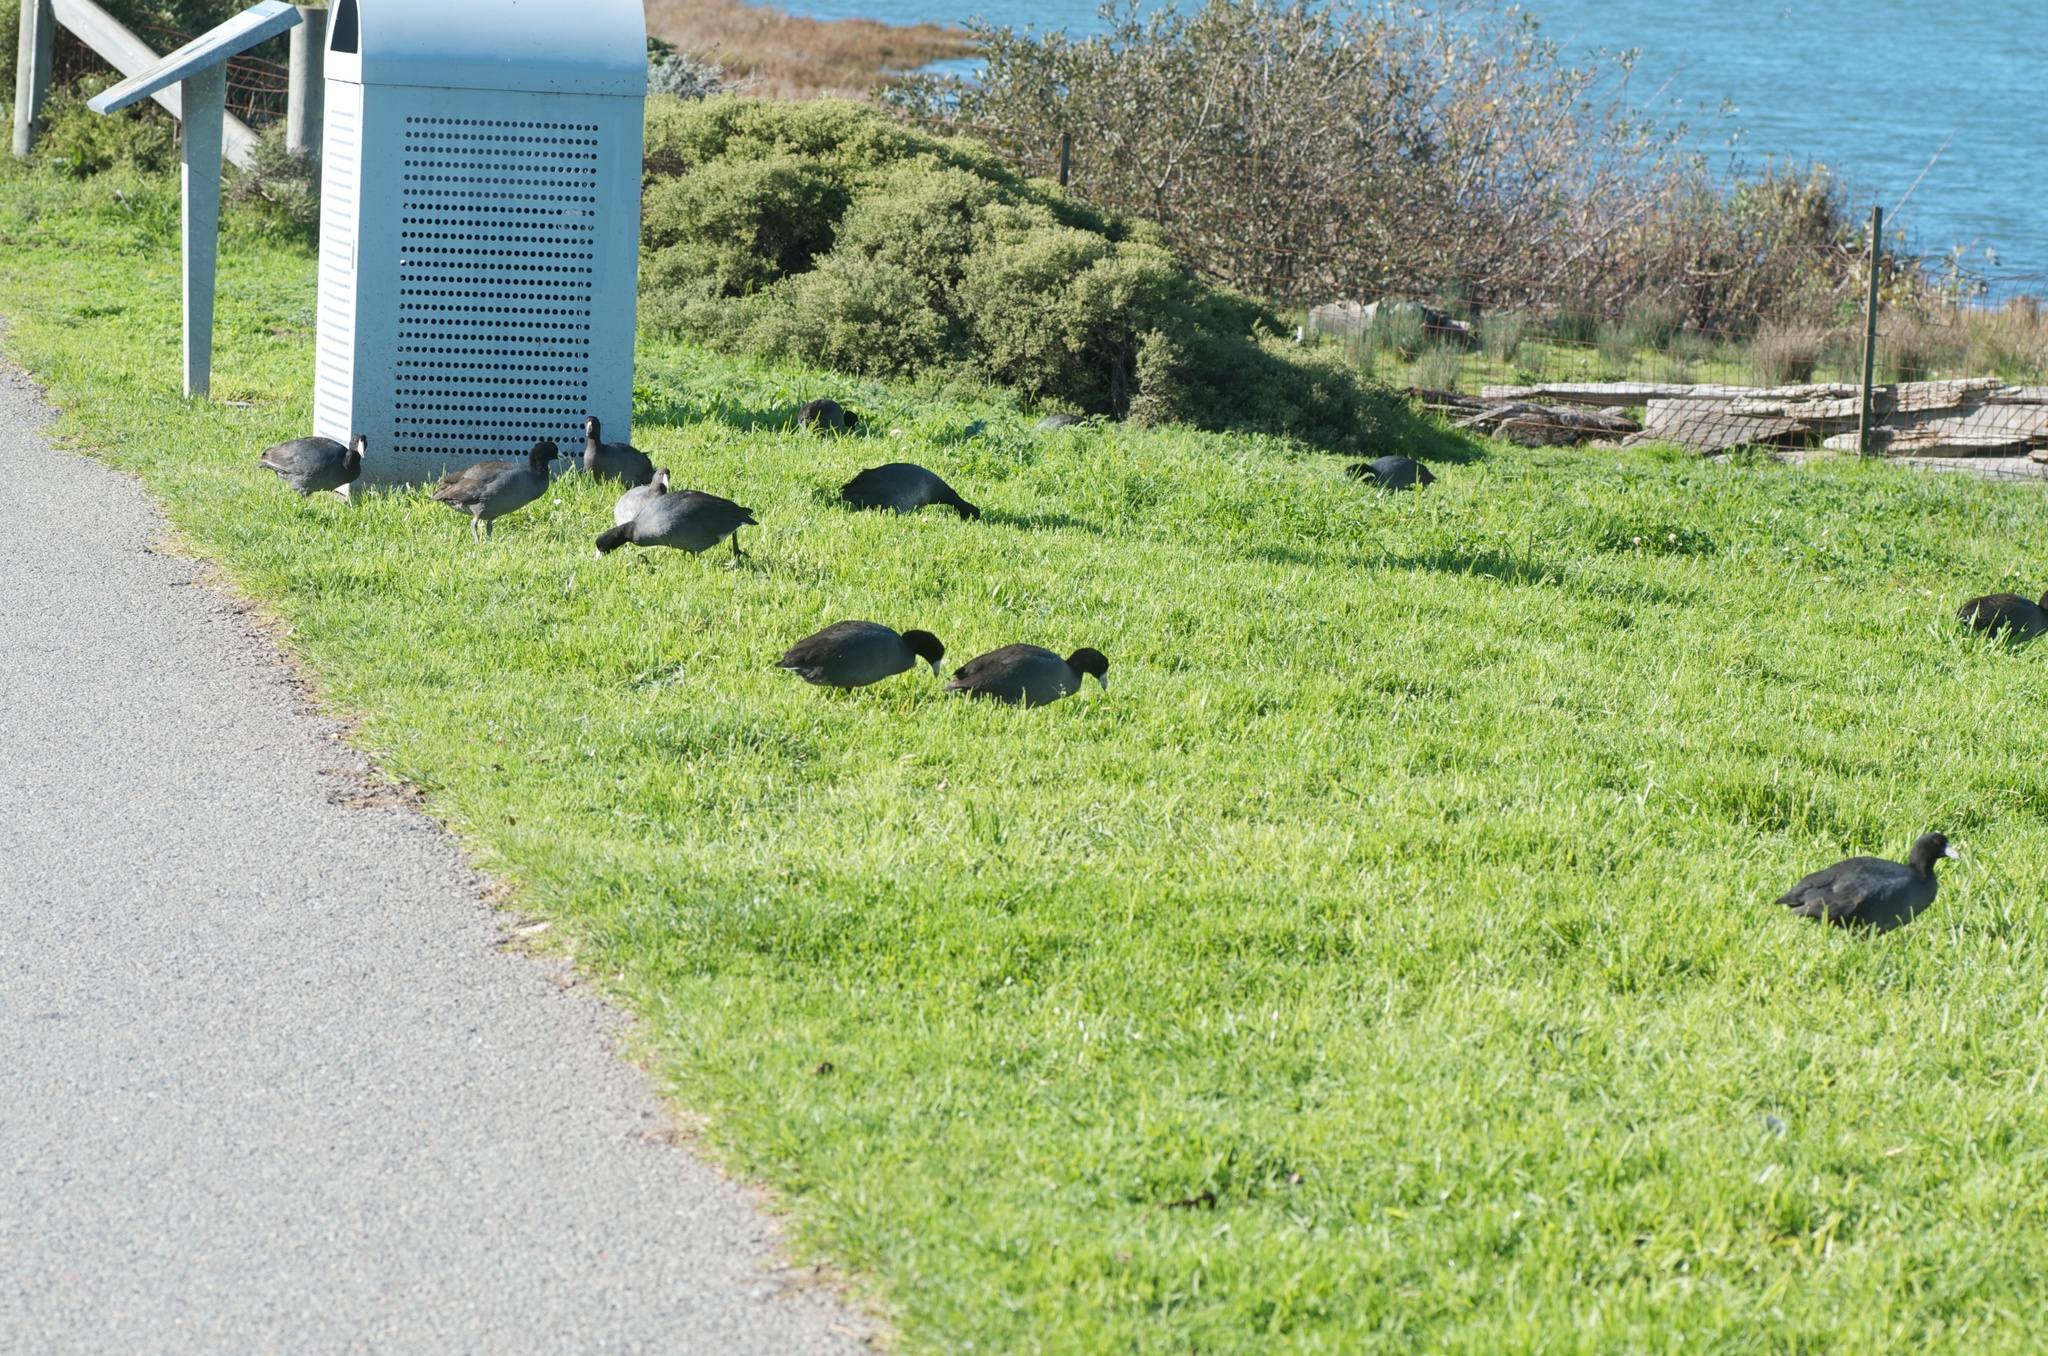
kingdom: Animalia
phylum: Chordata
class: Aves
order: Gruiformes
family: Rallidae
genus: Fulica
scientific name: Fulica americana
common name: American coot
